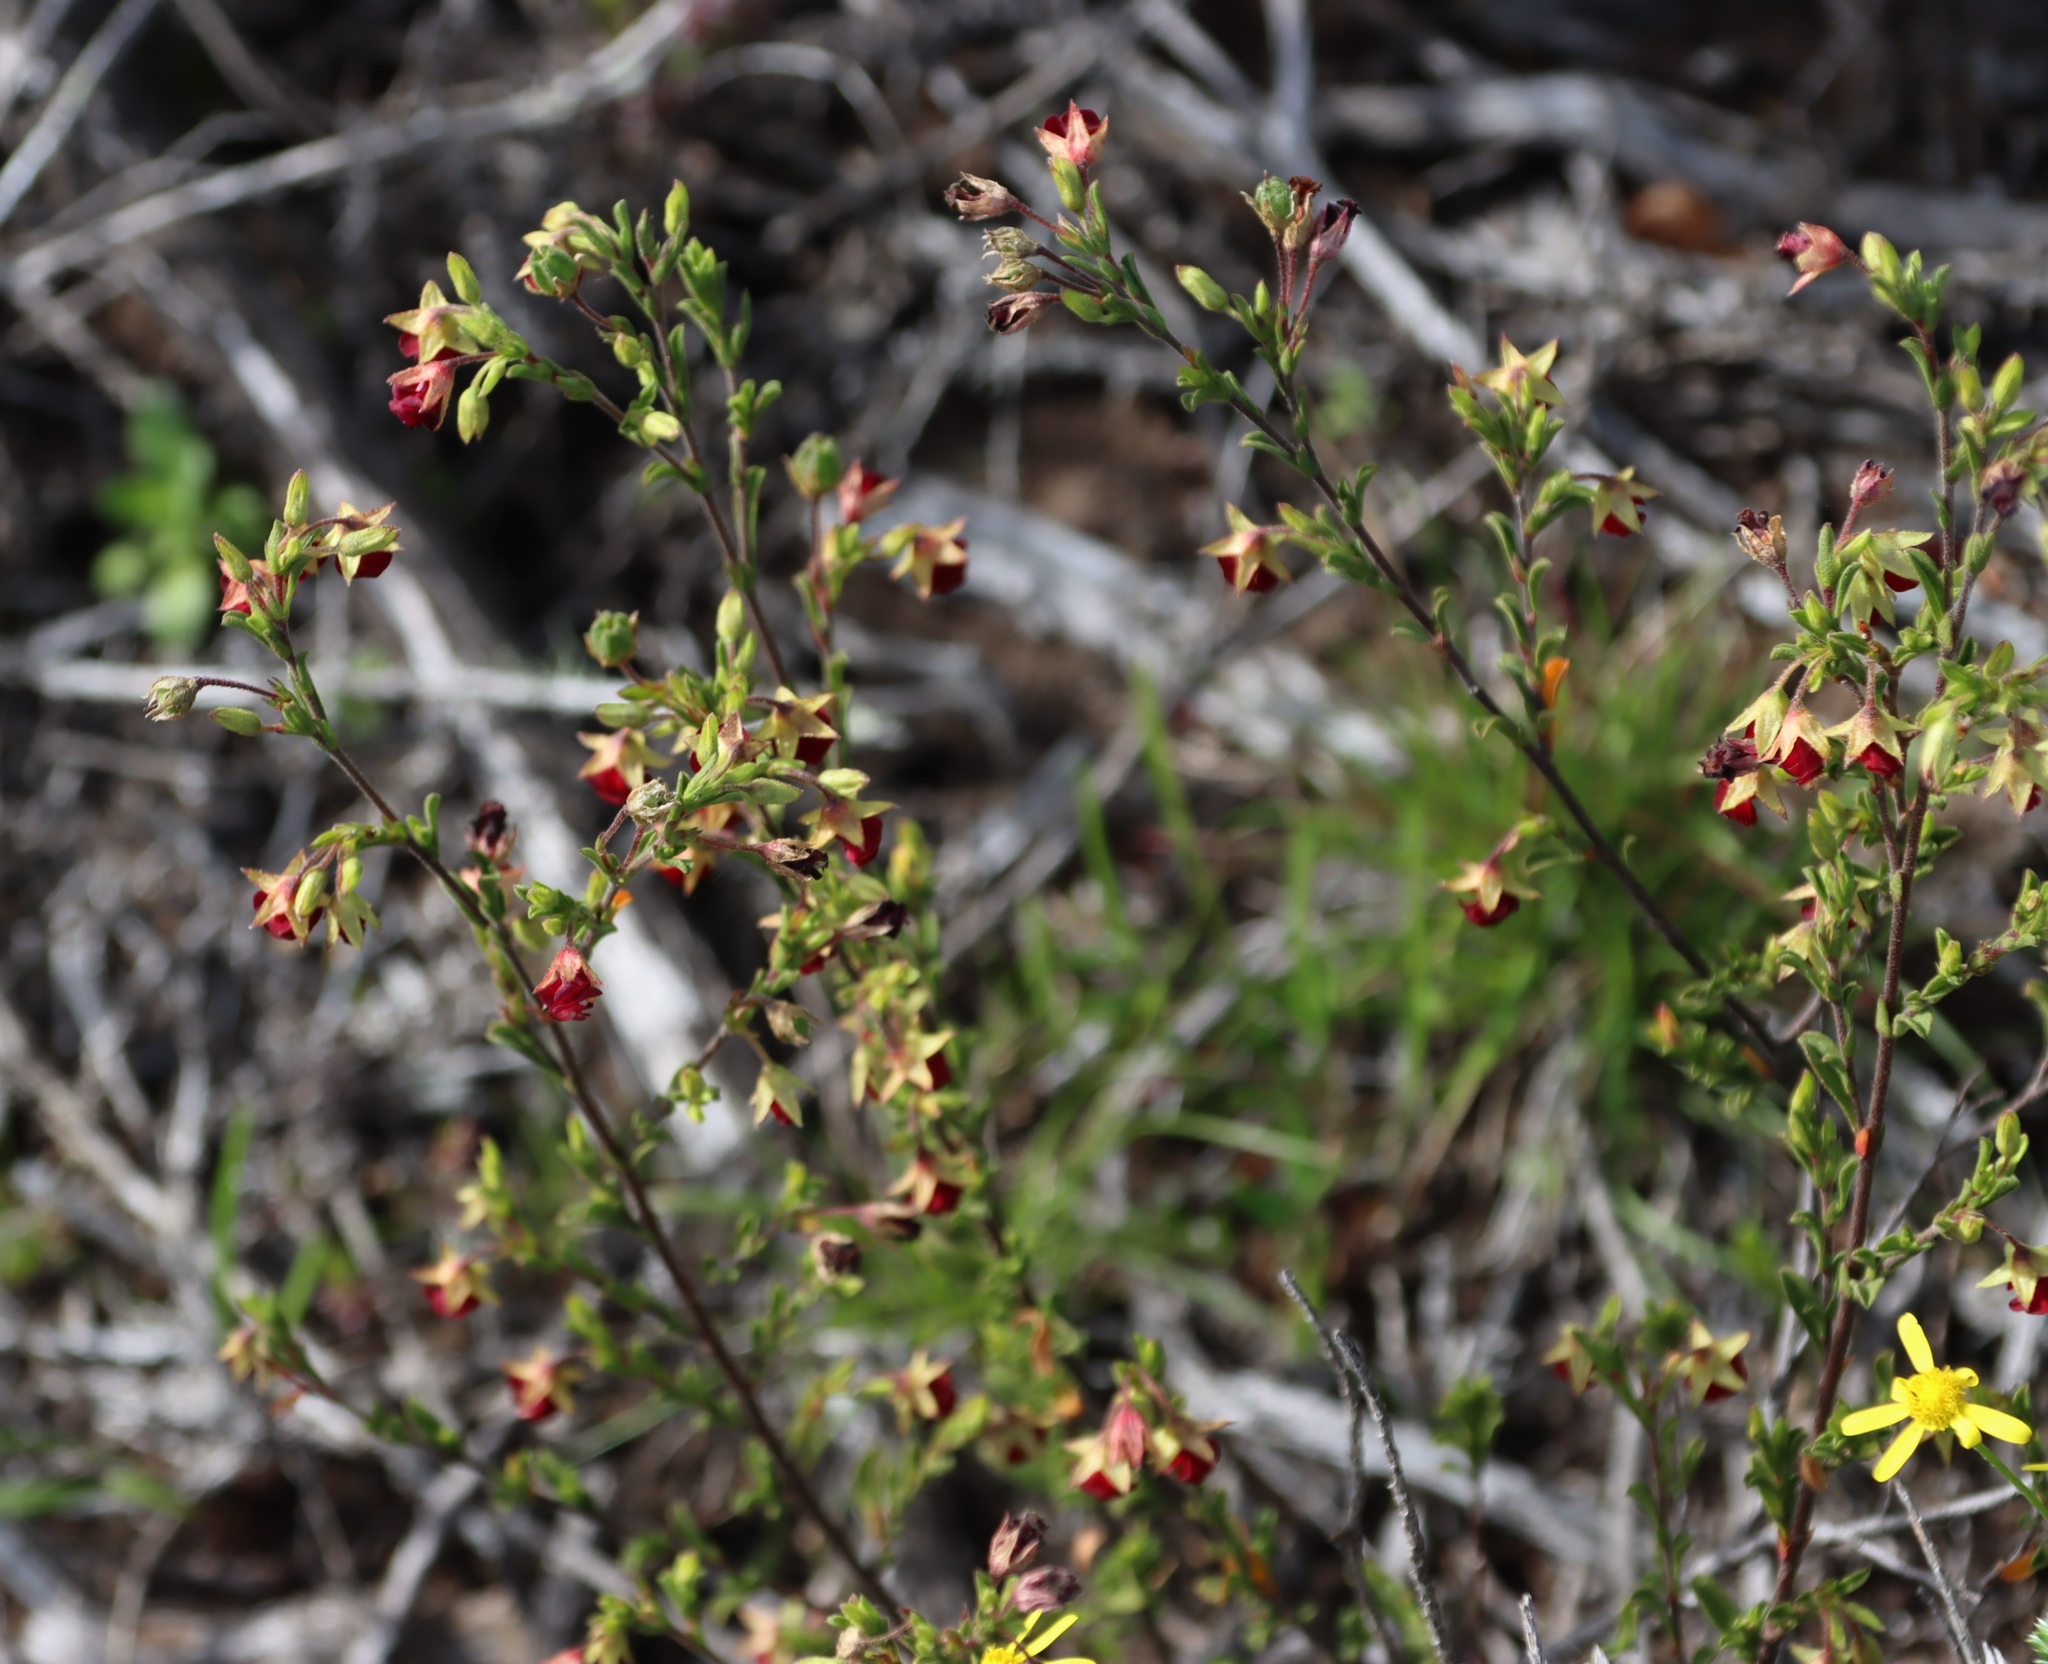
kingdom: Plantae
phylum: Tracheophyta
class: Magnoliopsida
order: Malvales
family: Malvaceae
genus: Hermannia
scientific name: Hermannia flammula
